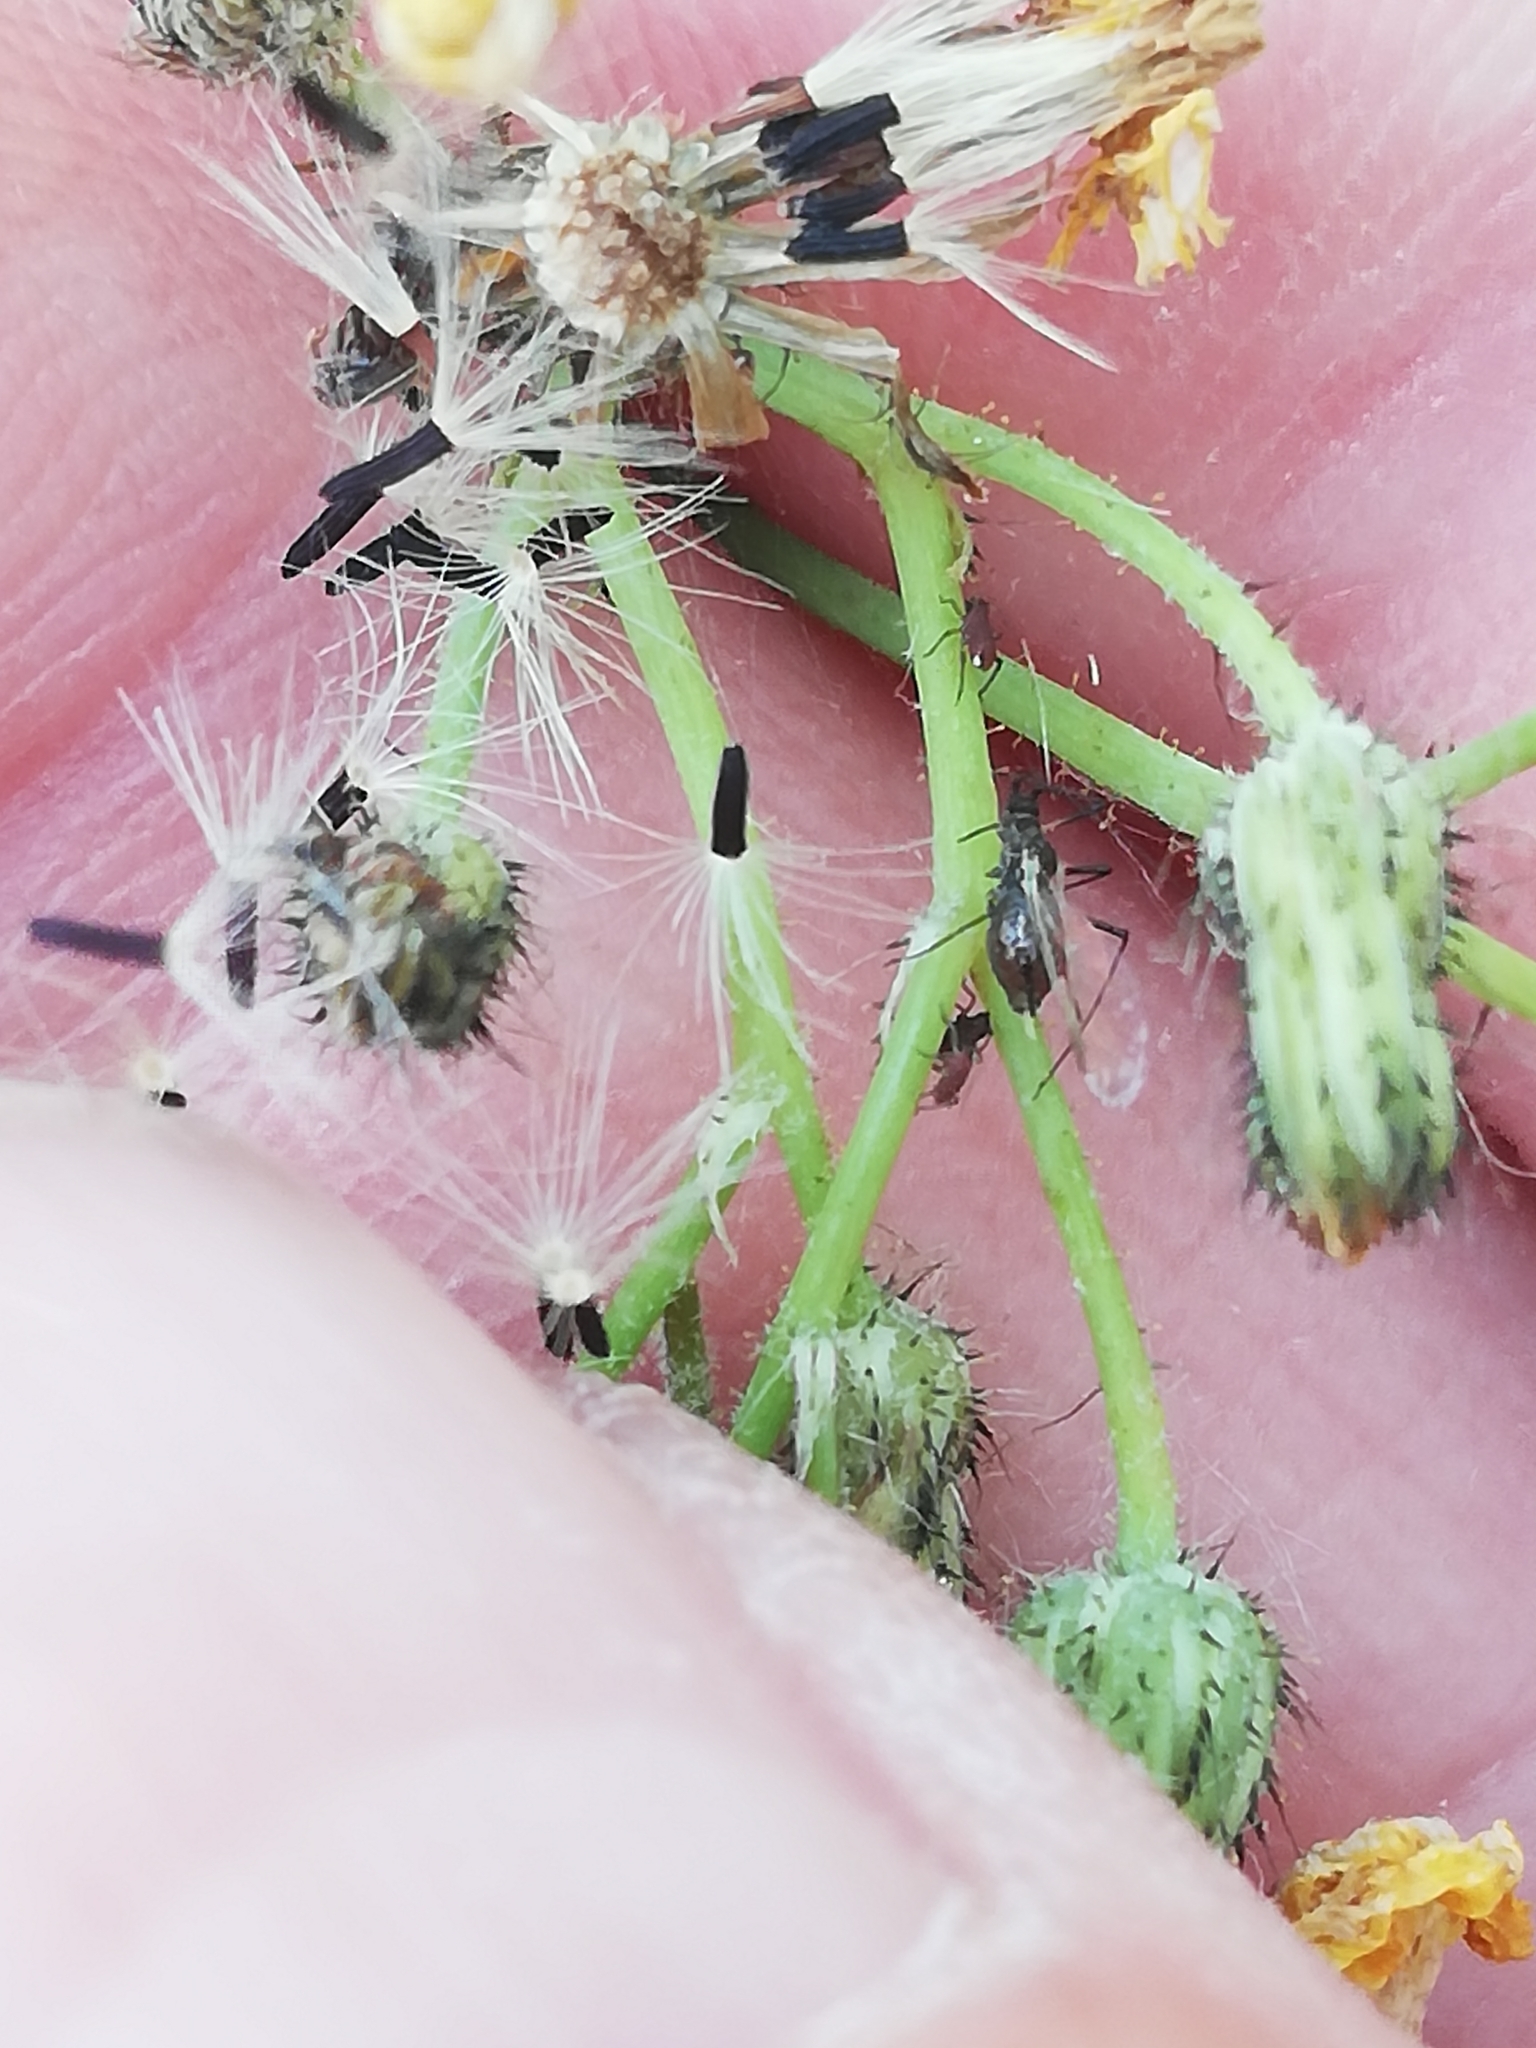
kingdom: Plantae
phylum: Tracheophyta
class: Magnoliopsida
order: Asterales
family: Asteraceae
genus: Pilosella
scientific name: Pilosella
